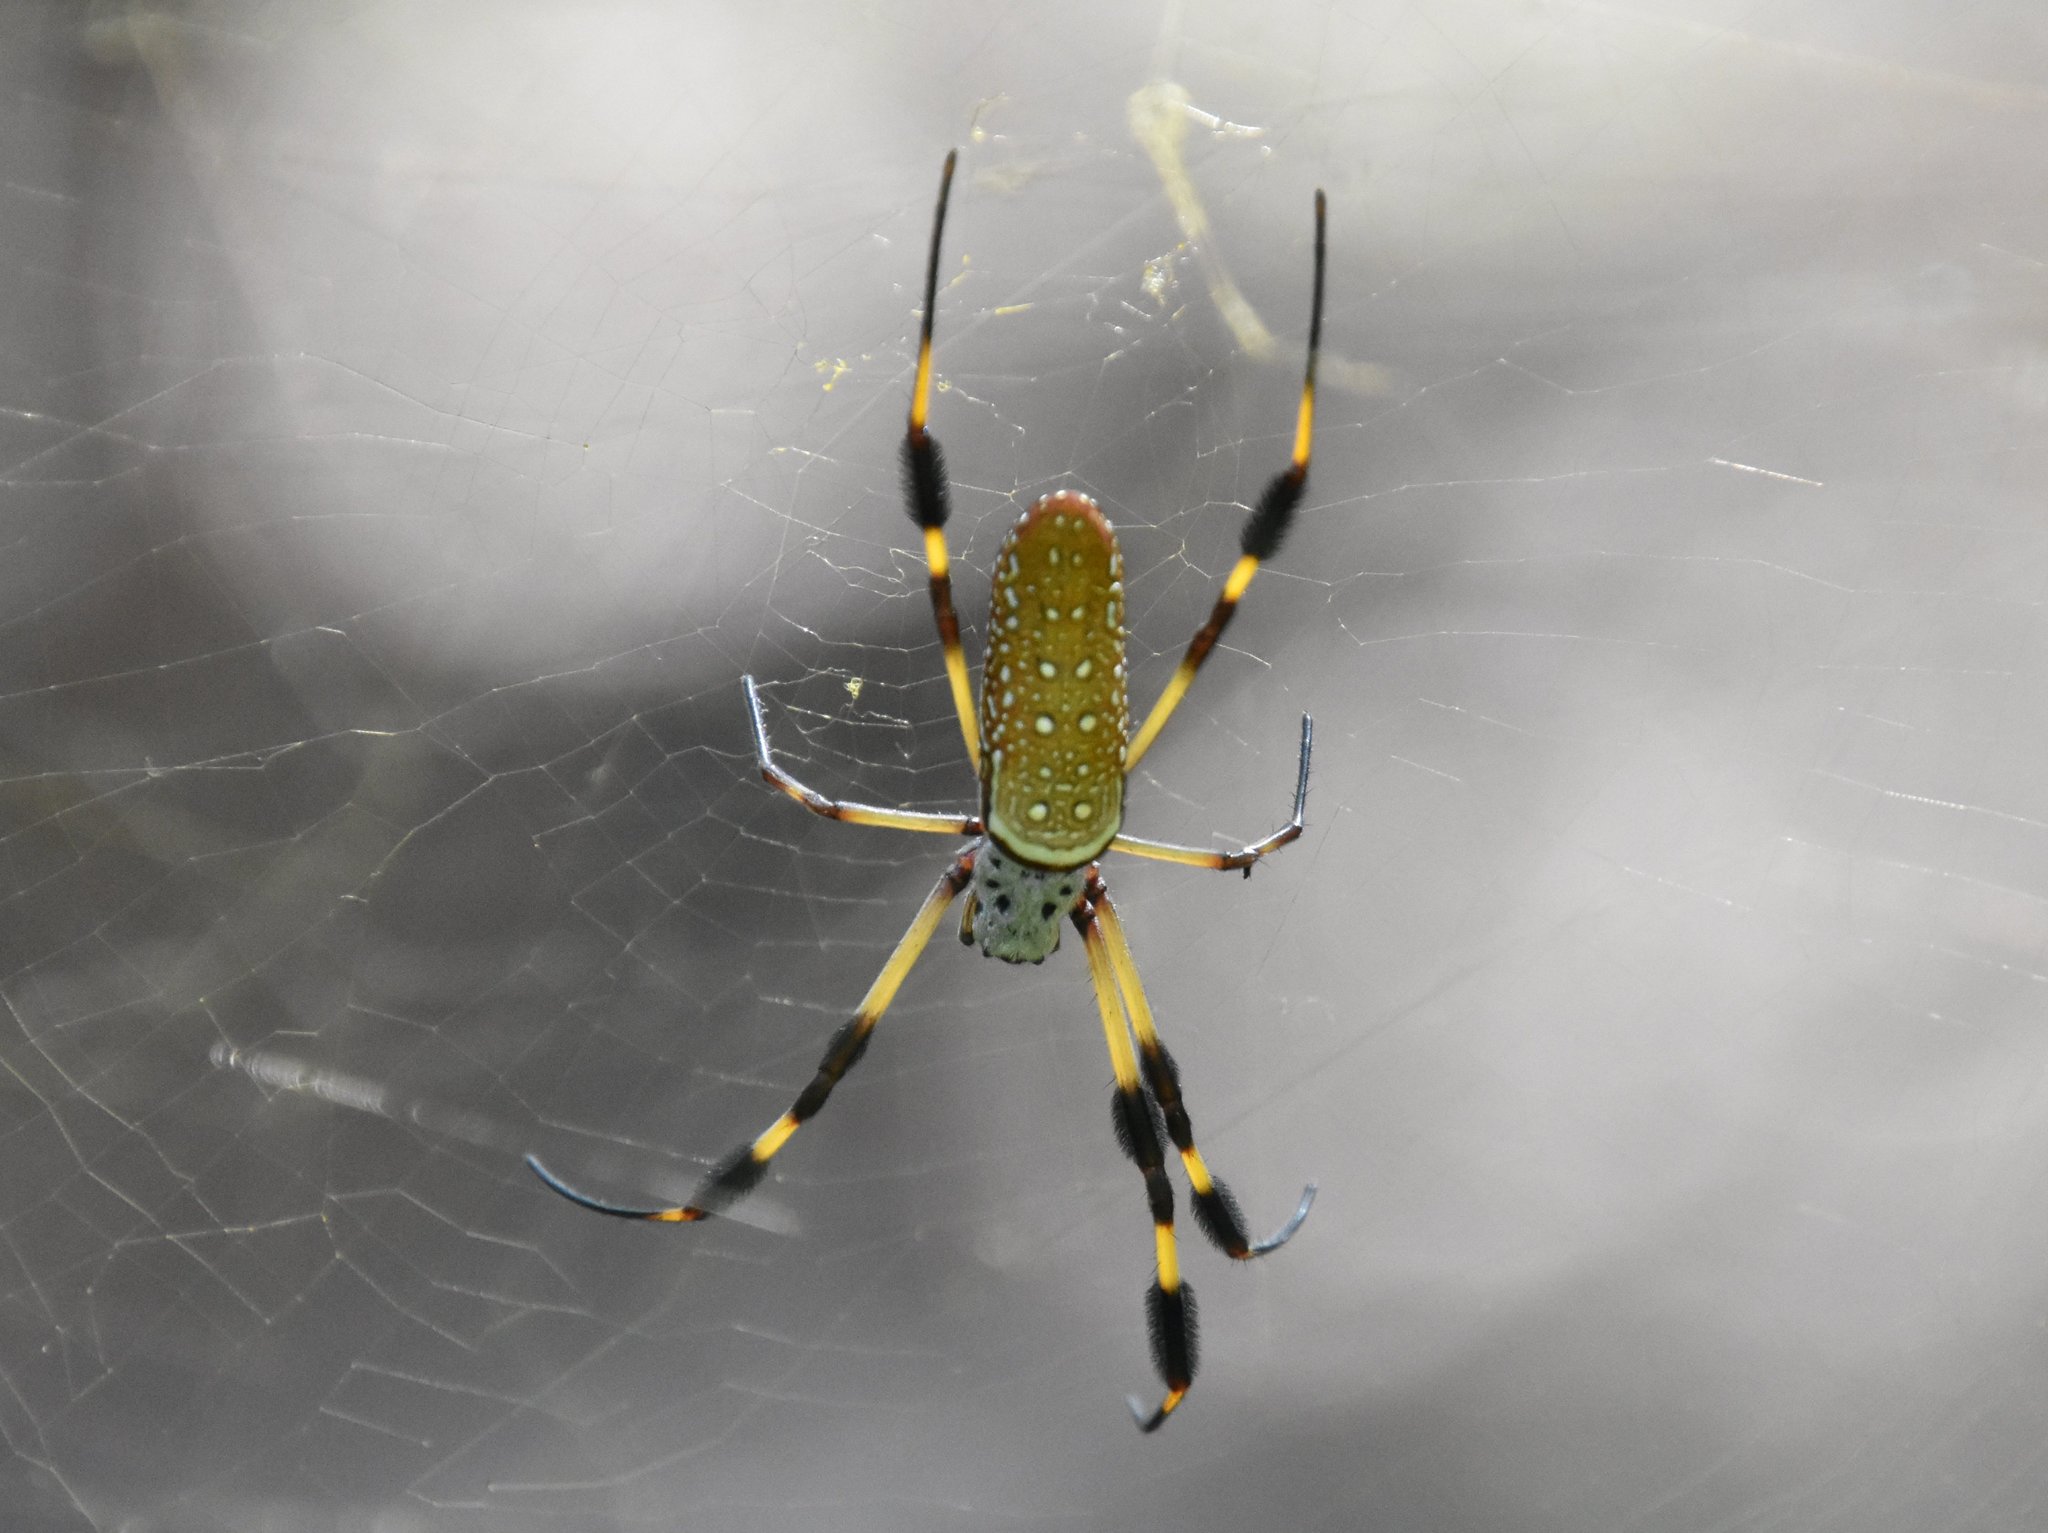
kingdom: Animalia
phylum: Arthropoda
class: Arachnida
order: Araneae
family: Araneidae
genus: Trichonephila
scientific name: Trichonephila clavipes
